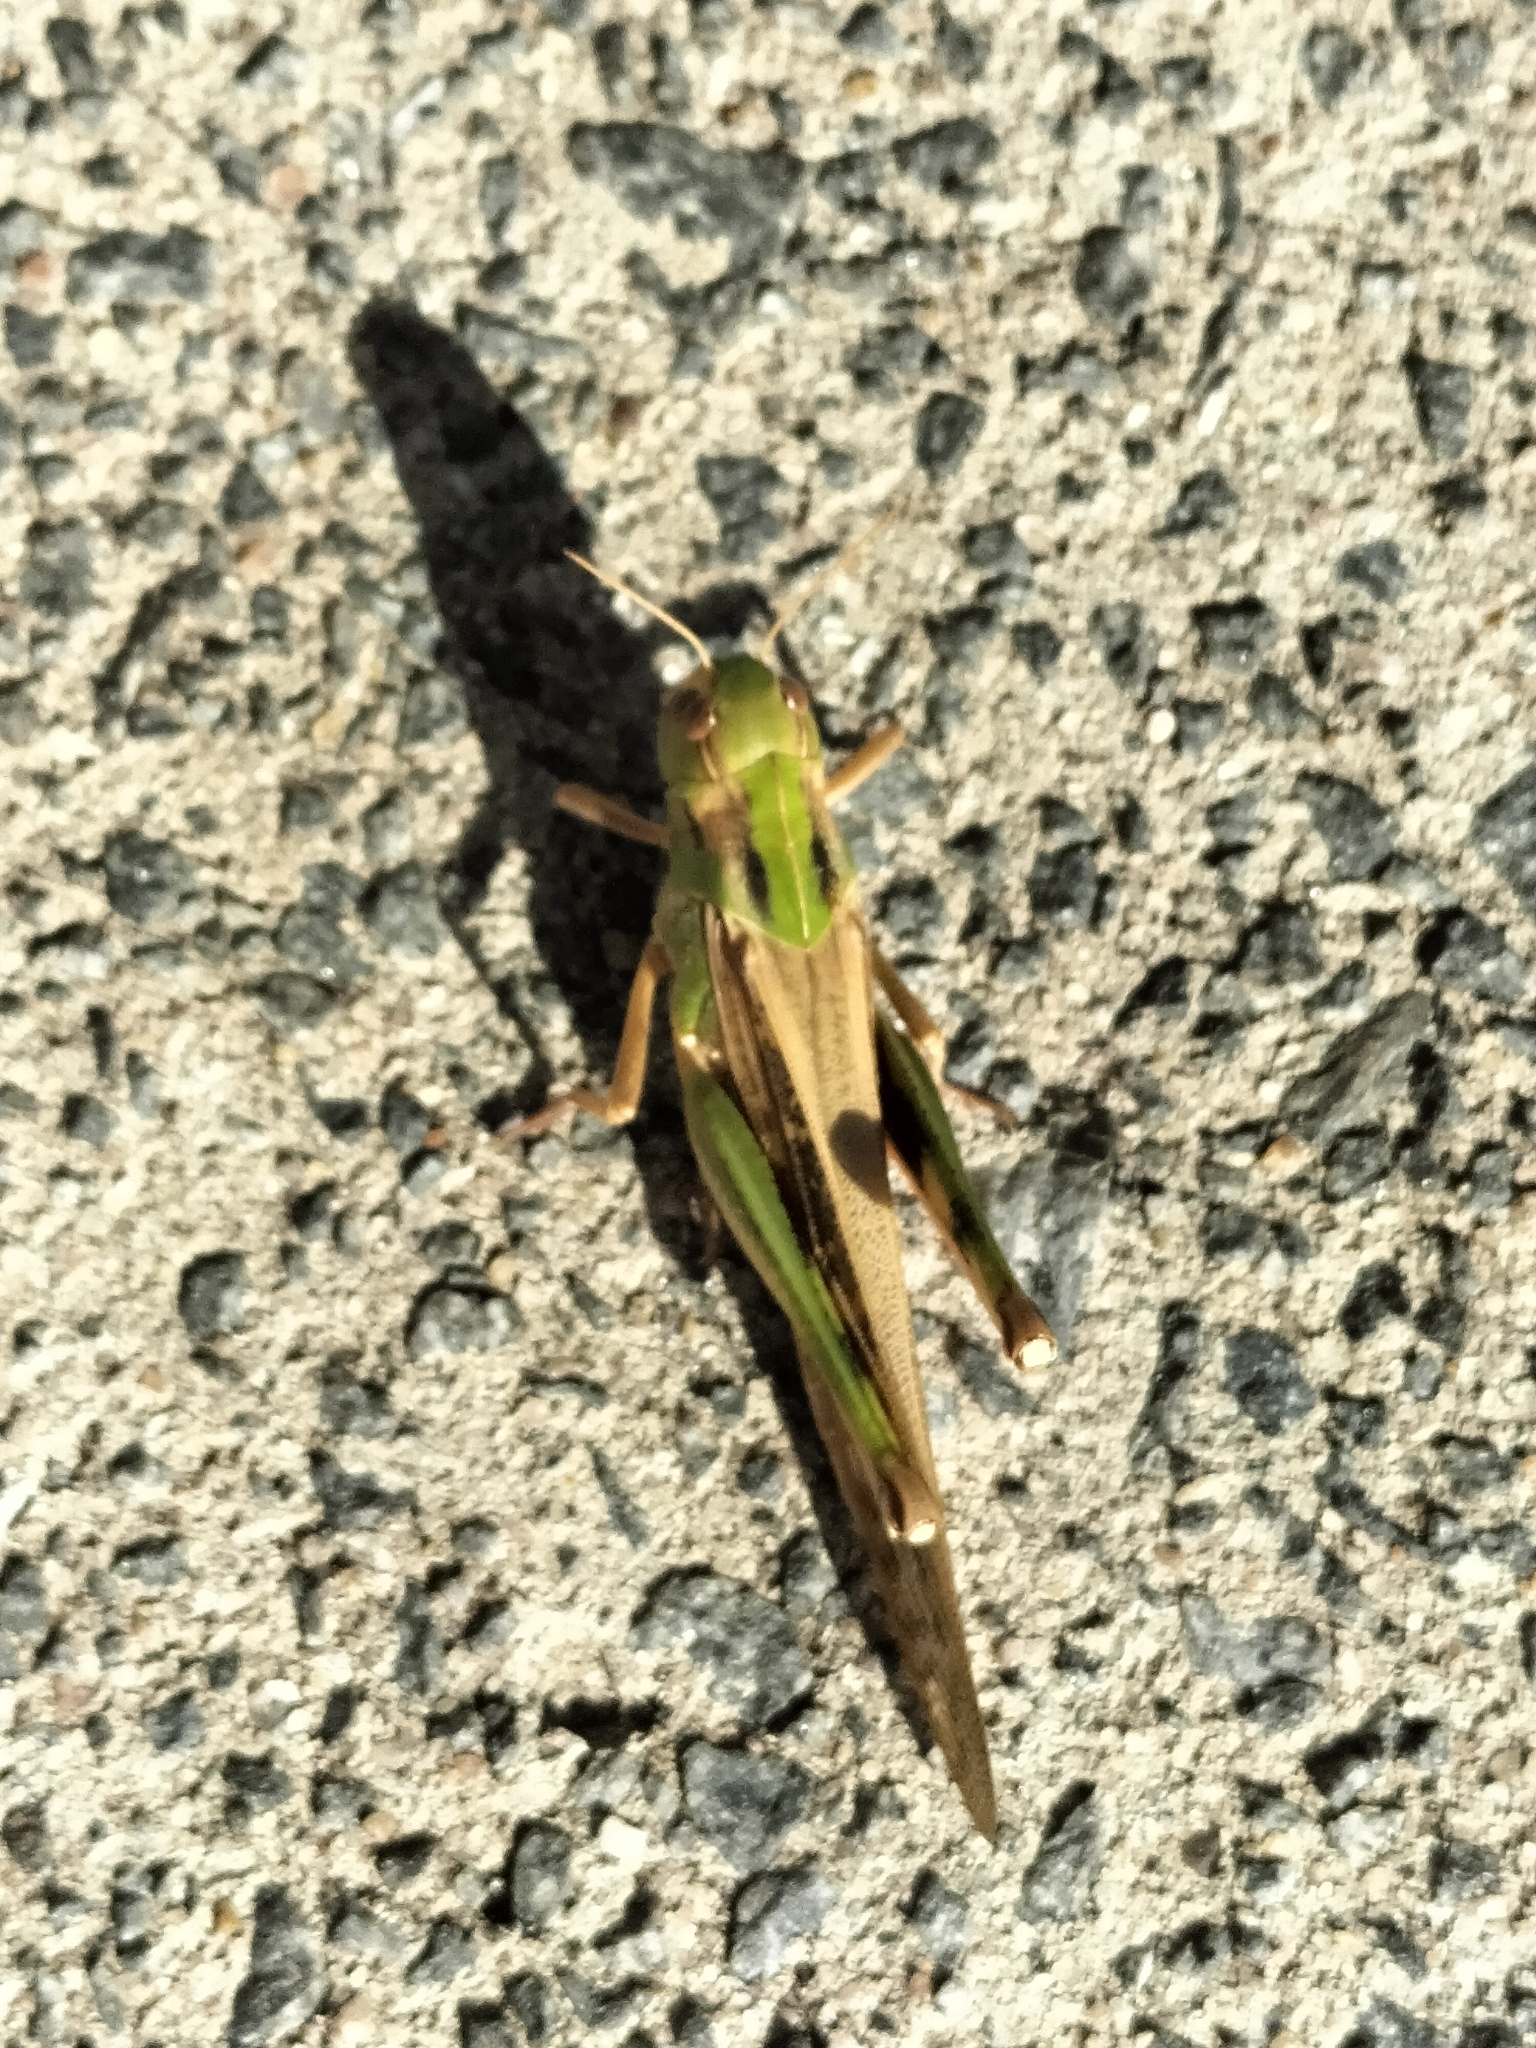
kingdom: Animalia
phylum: Arthropoda
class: Insecta
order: Orthoptera
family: Acrididae
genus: Locusta
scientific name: Locusta migratoria
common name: Migratory locust
